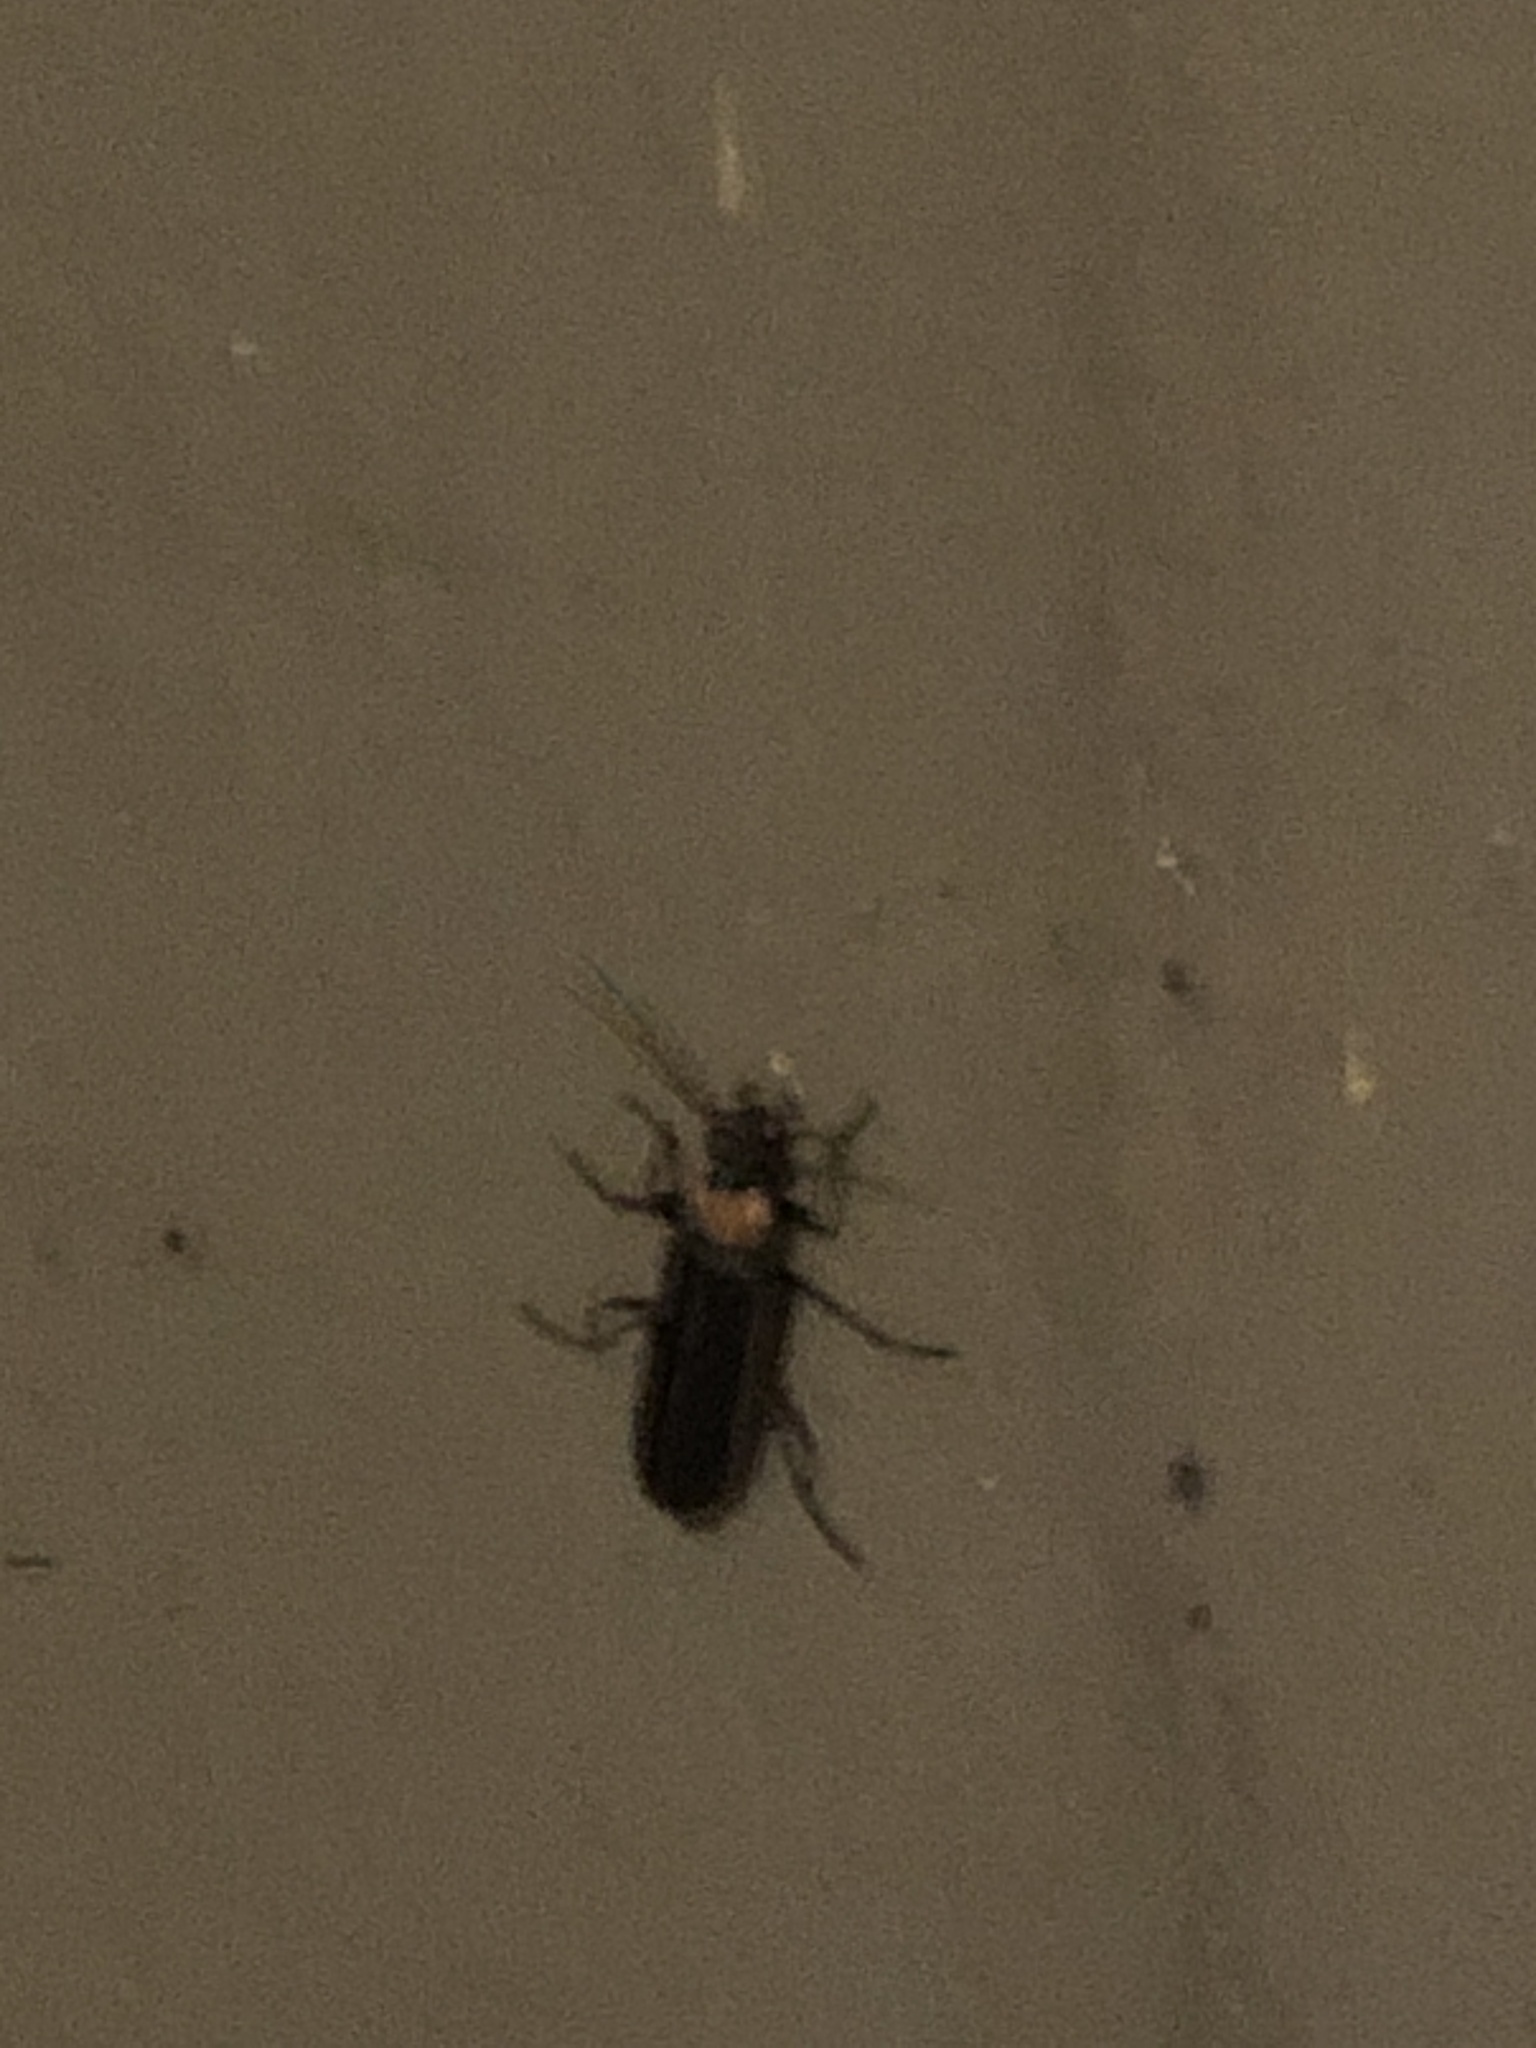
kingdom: Animalia
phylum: Arthropoda
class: Insecta
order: Coleoptera
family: Cantharidae
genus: Podabrus
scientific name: Podabrus flavicollis
